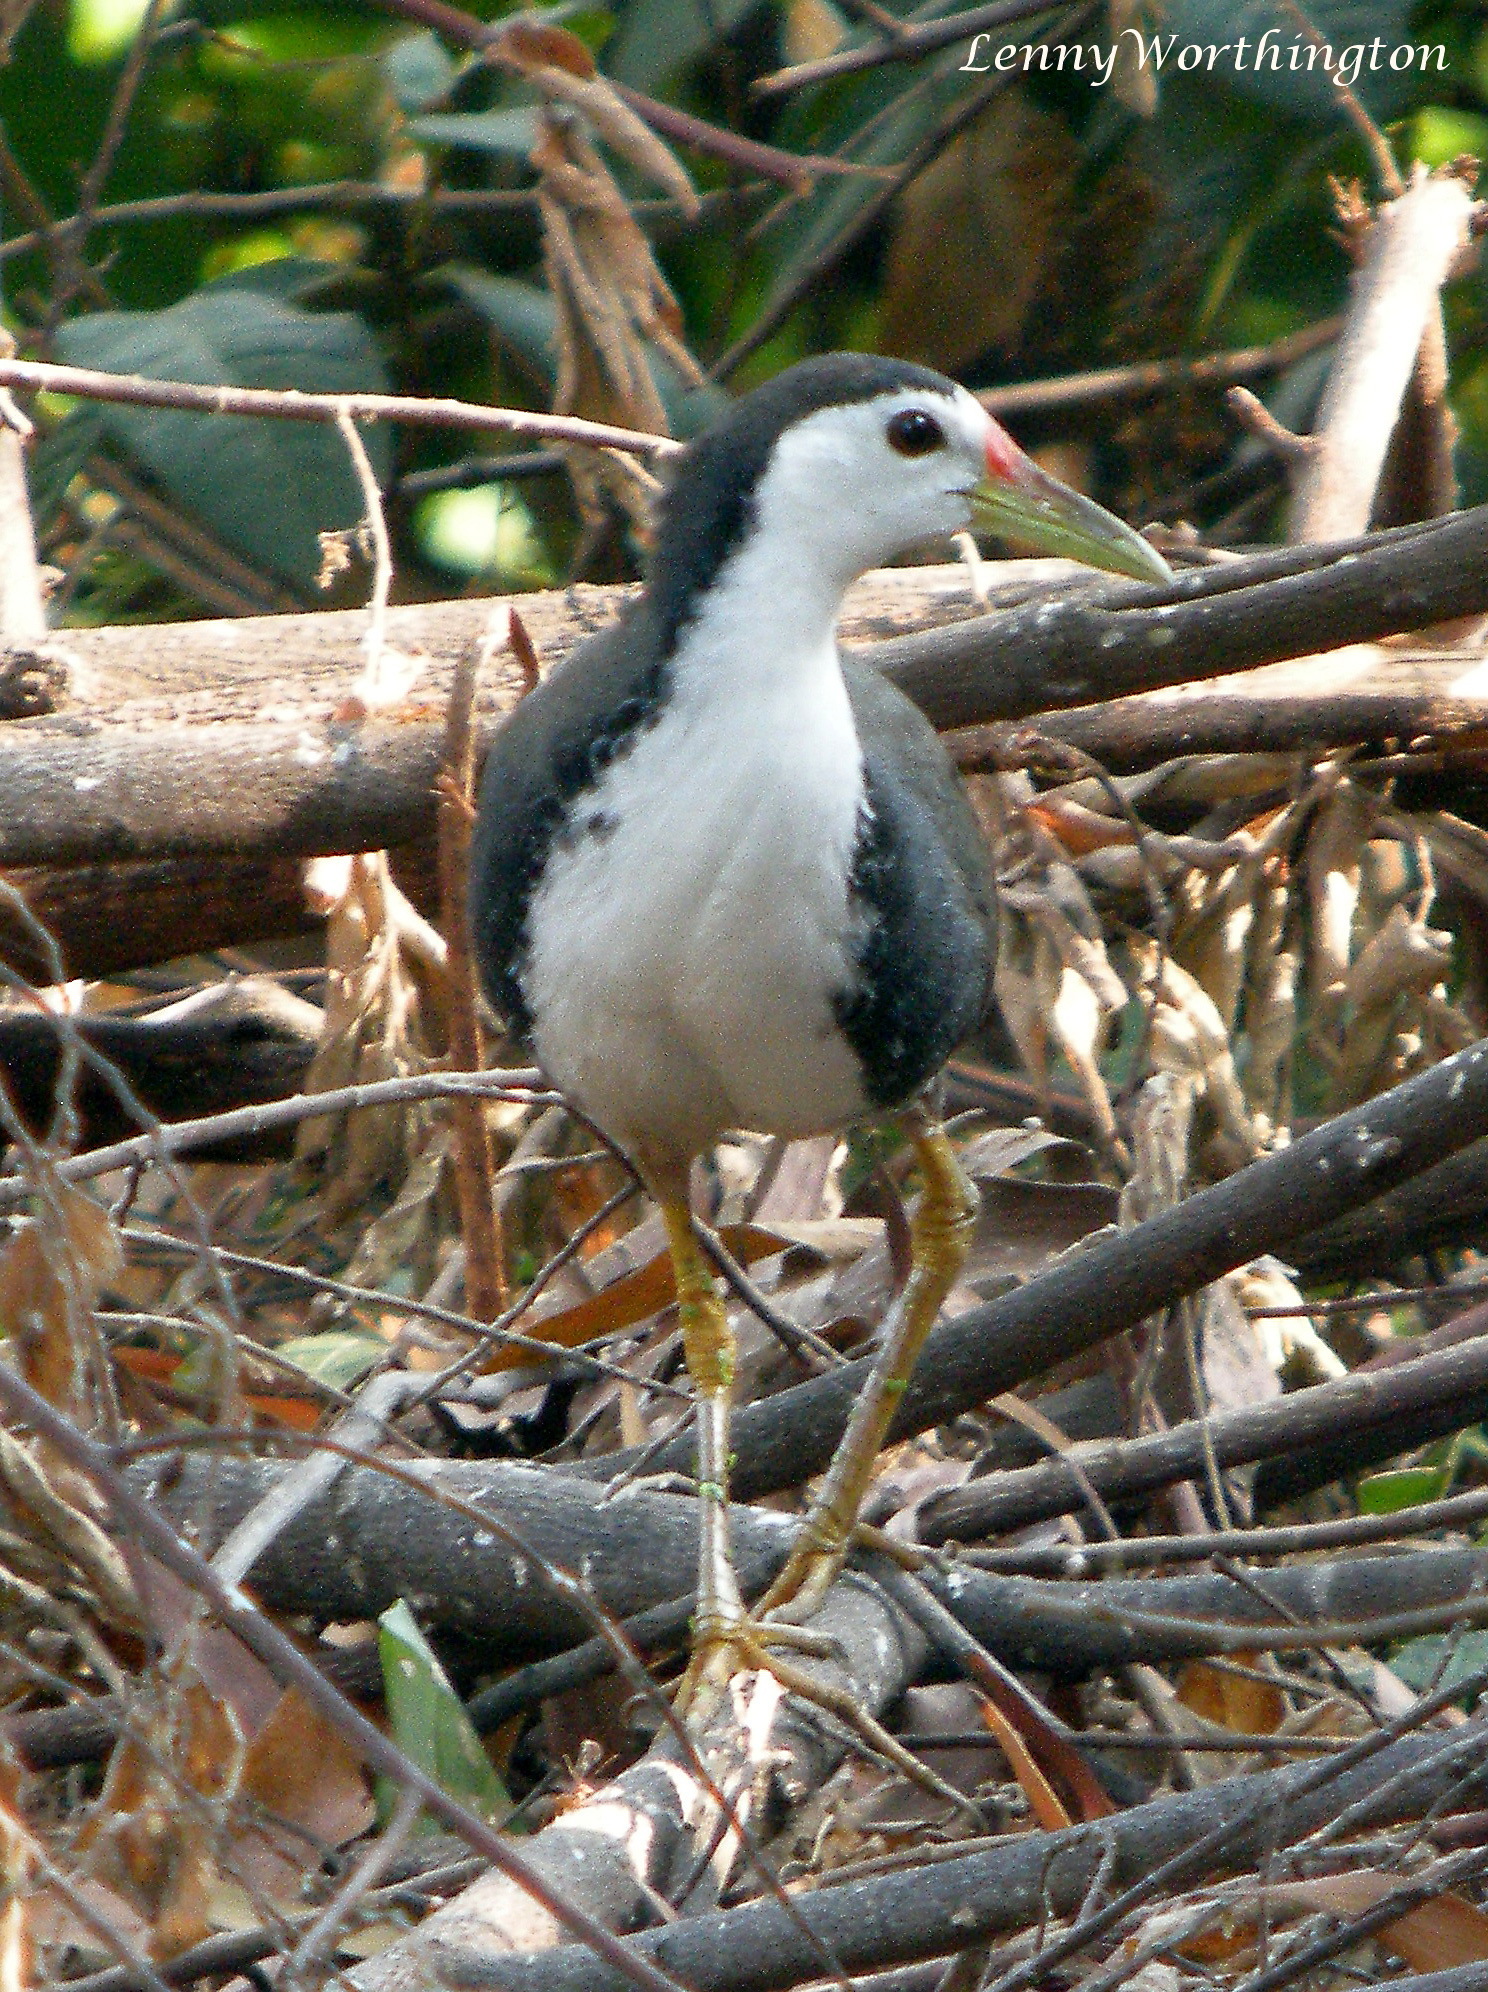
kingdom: Animalia
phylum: Chordata
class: Aves
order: Gruiformes
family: Rallidae
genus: Amaurornis
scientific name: Amaurornis phoenicurus
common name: White-breasted waterhen
